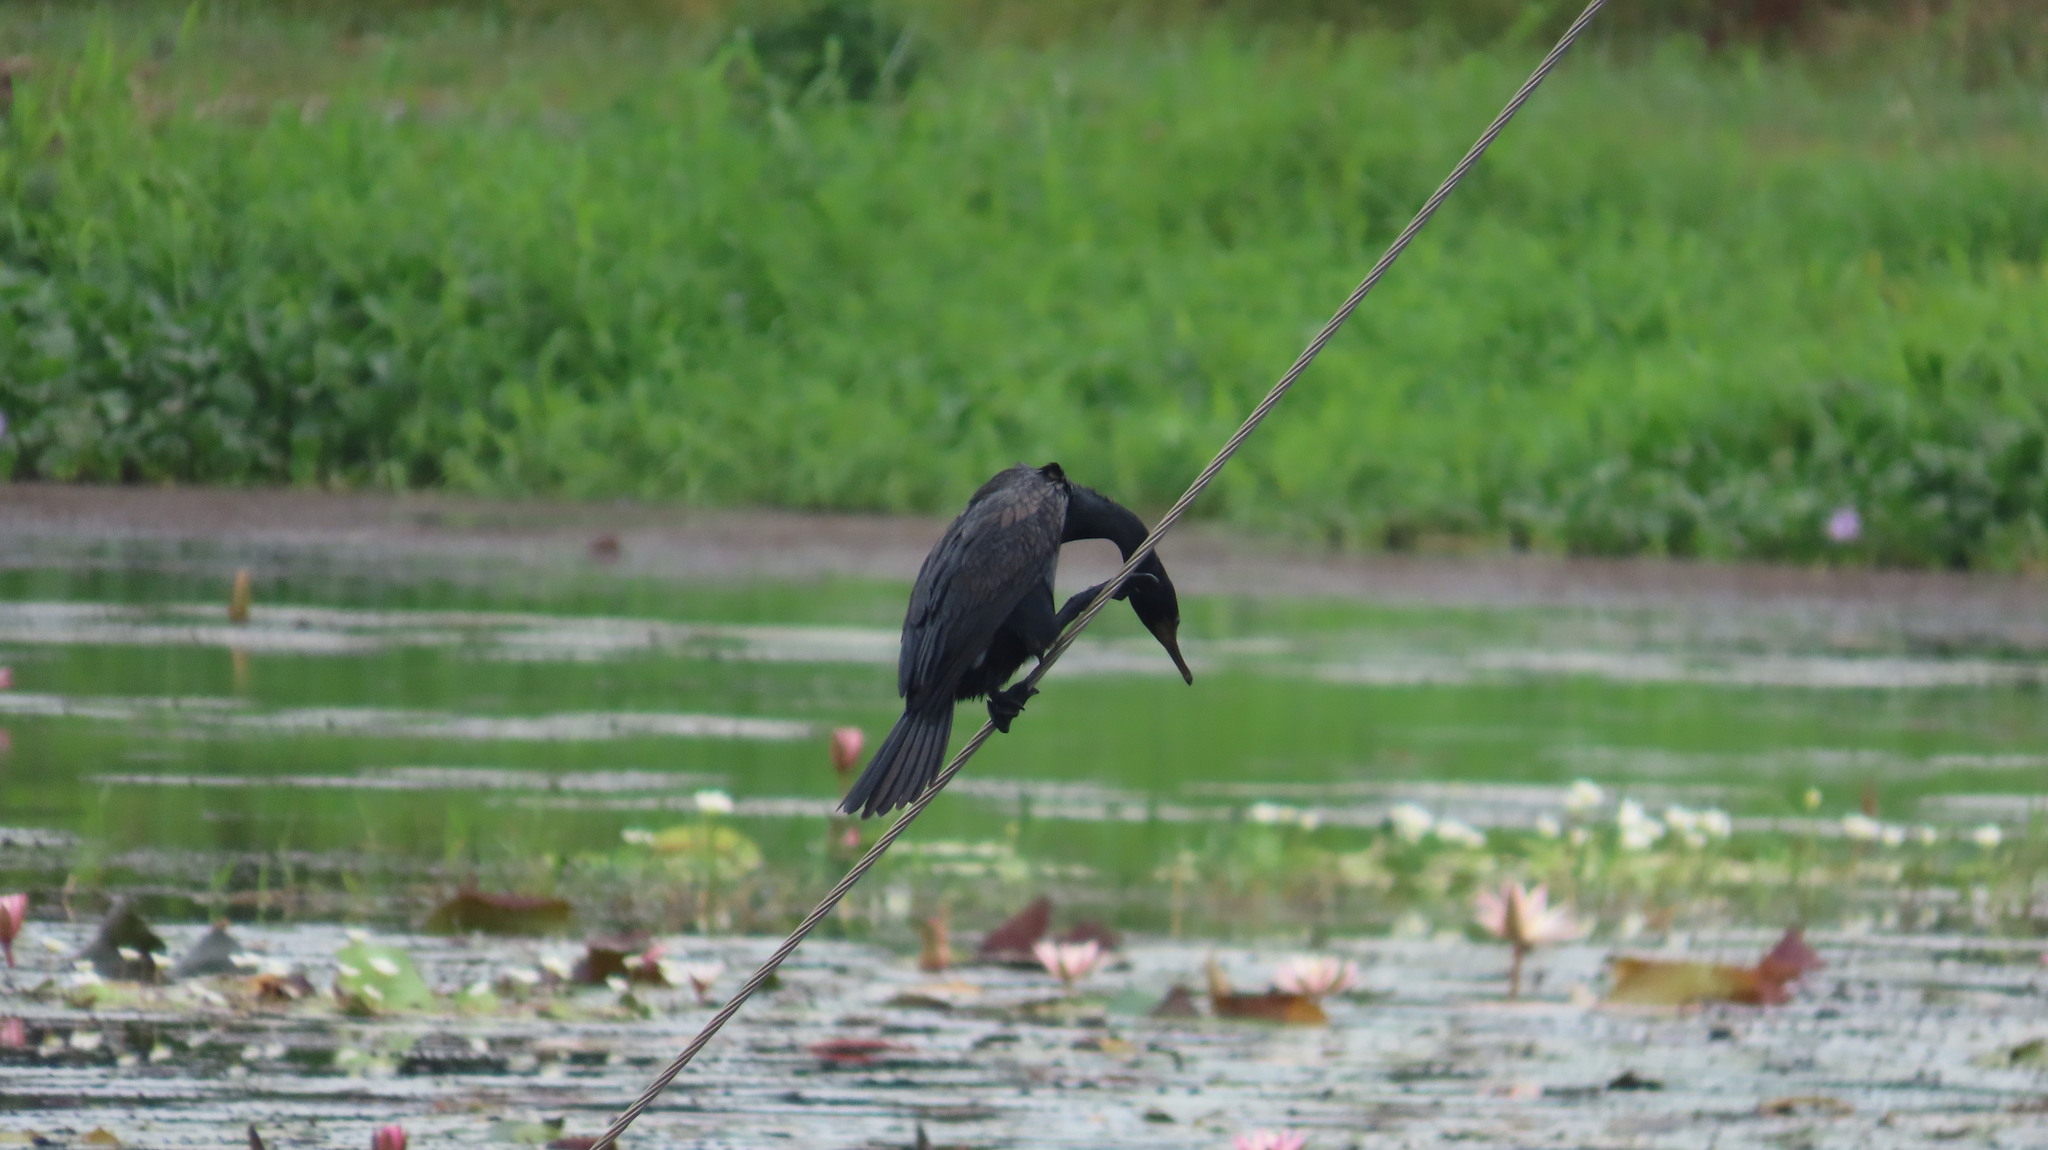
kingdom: Animalia
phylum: Chordata
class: Aves
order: Suliformes
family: Phalacrocoracidae
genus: Phalacrocorax
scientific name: Phalacrocorax fuscicollis
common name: Indian cormorant
